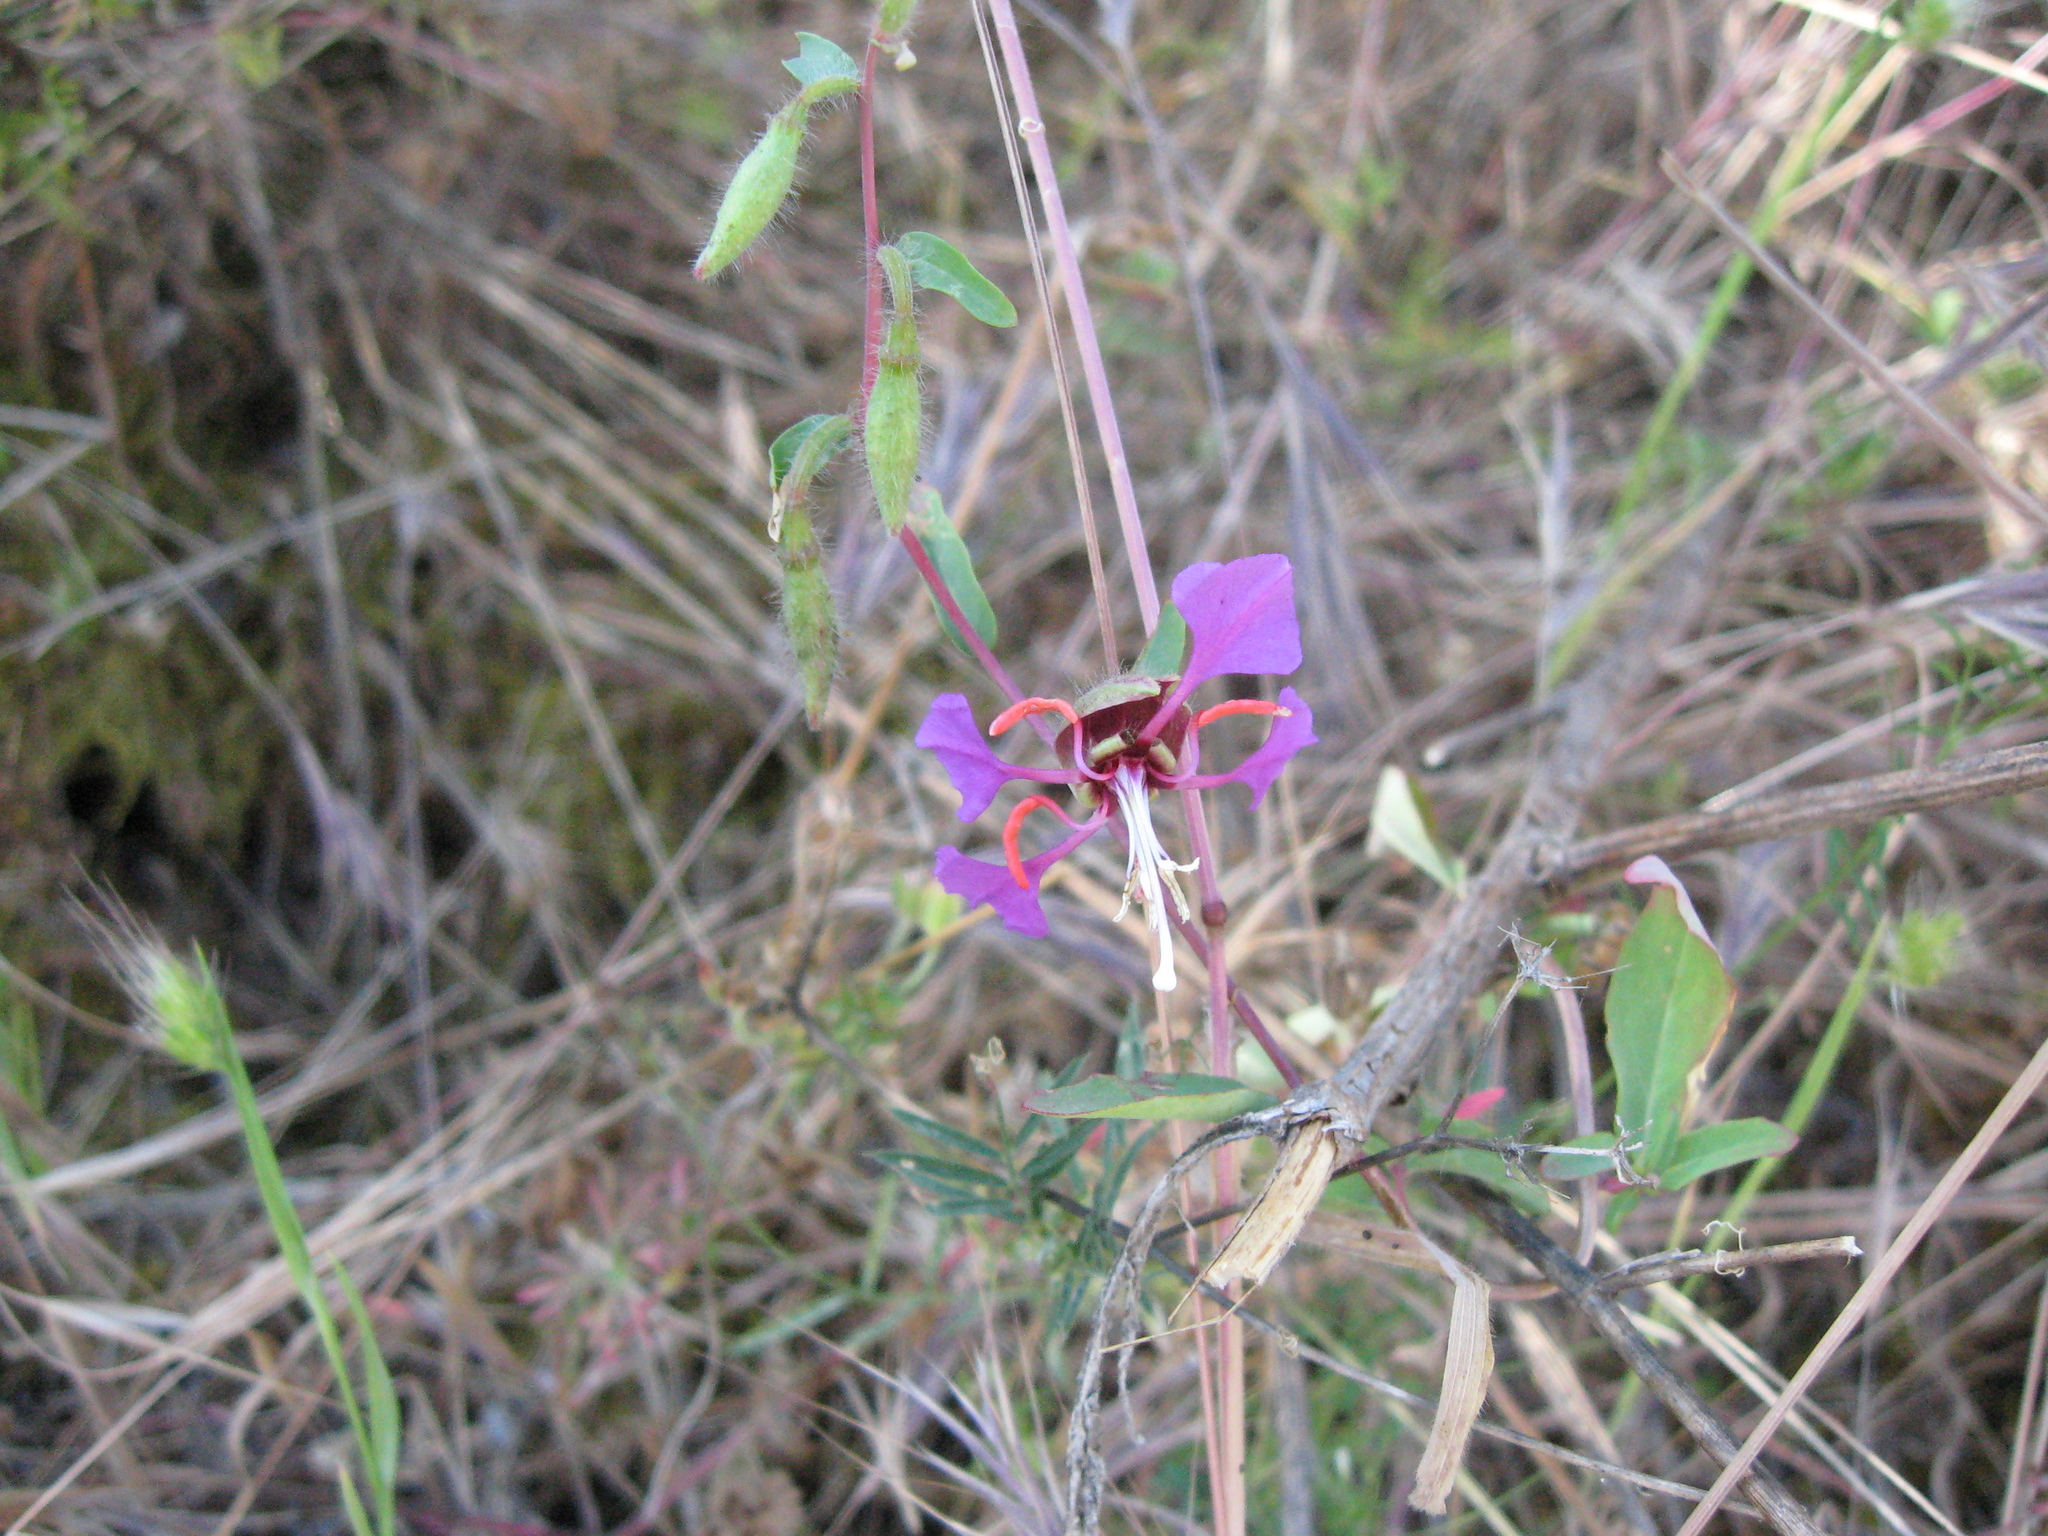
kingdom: Plantae
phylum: Tracheophyta
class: Magnoliopsida
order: Myrtales
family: Onagraceae
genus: Clarkia
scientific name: Clarkia unguiculata
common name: Clarkia
